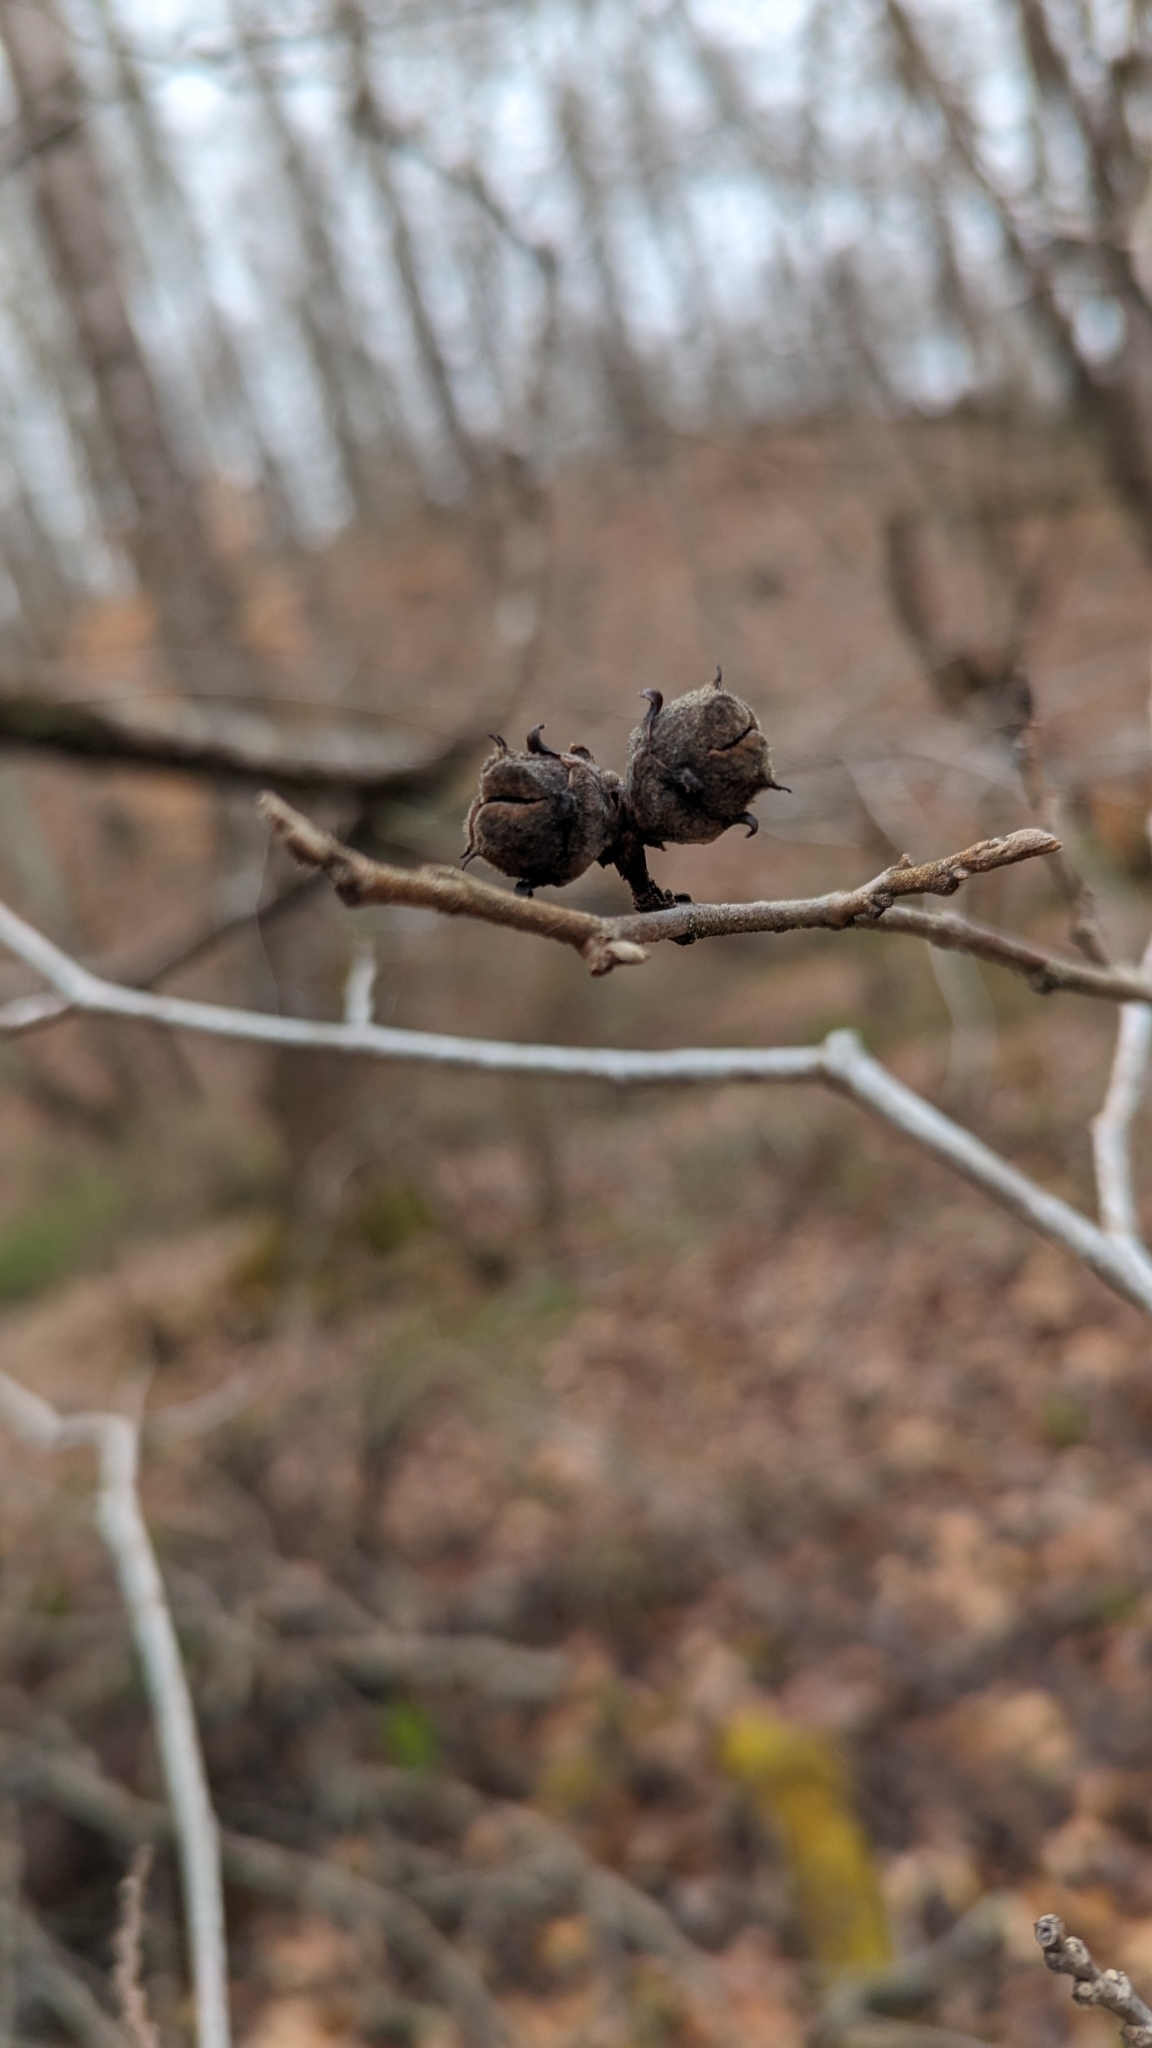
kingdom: Plantae
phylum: Tracheophyta
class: Magnoliopsida
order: Saxifragales
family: Hamamelidaceae
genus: Hamamelis
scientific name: Hamamelis virginiana
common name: Witch-hazel
